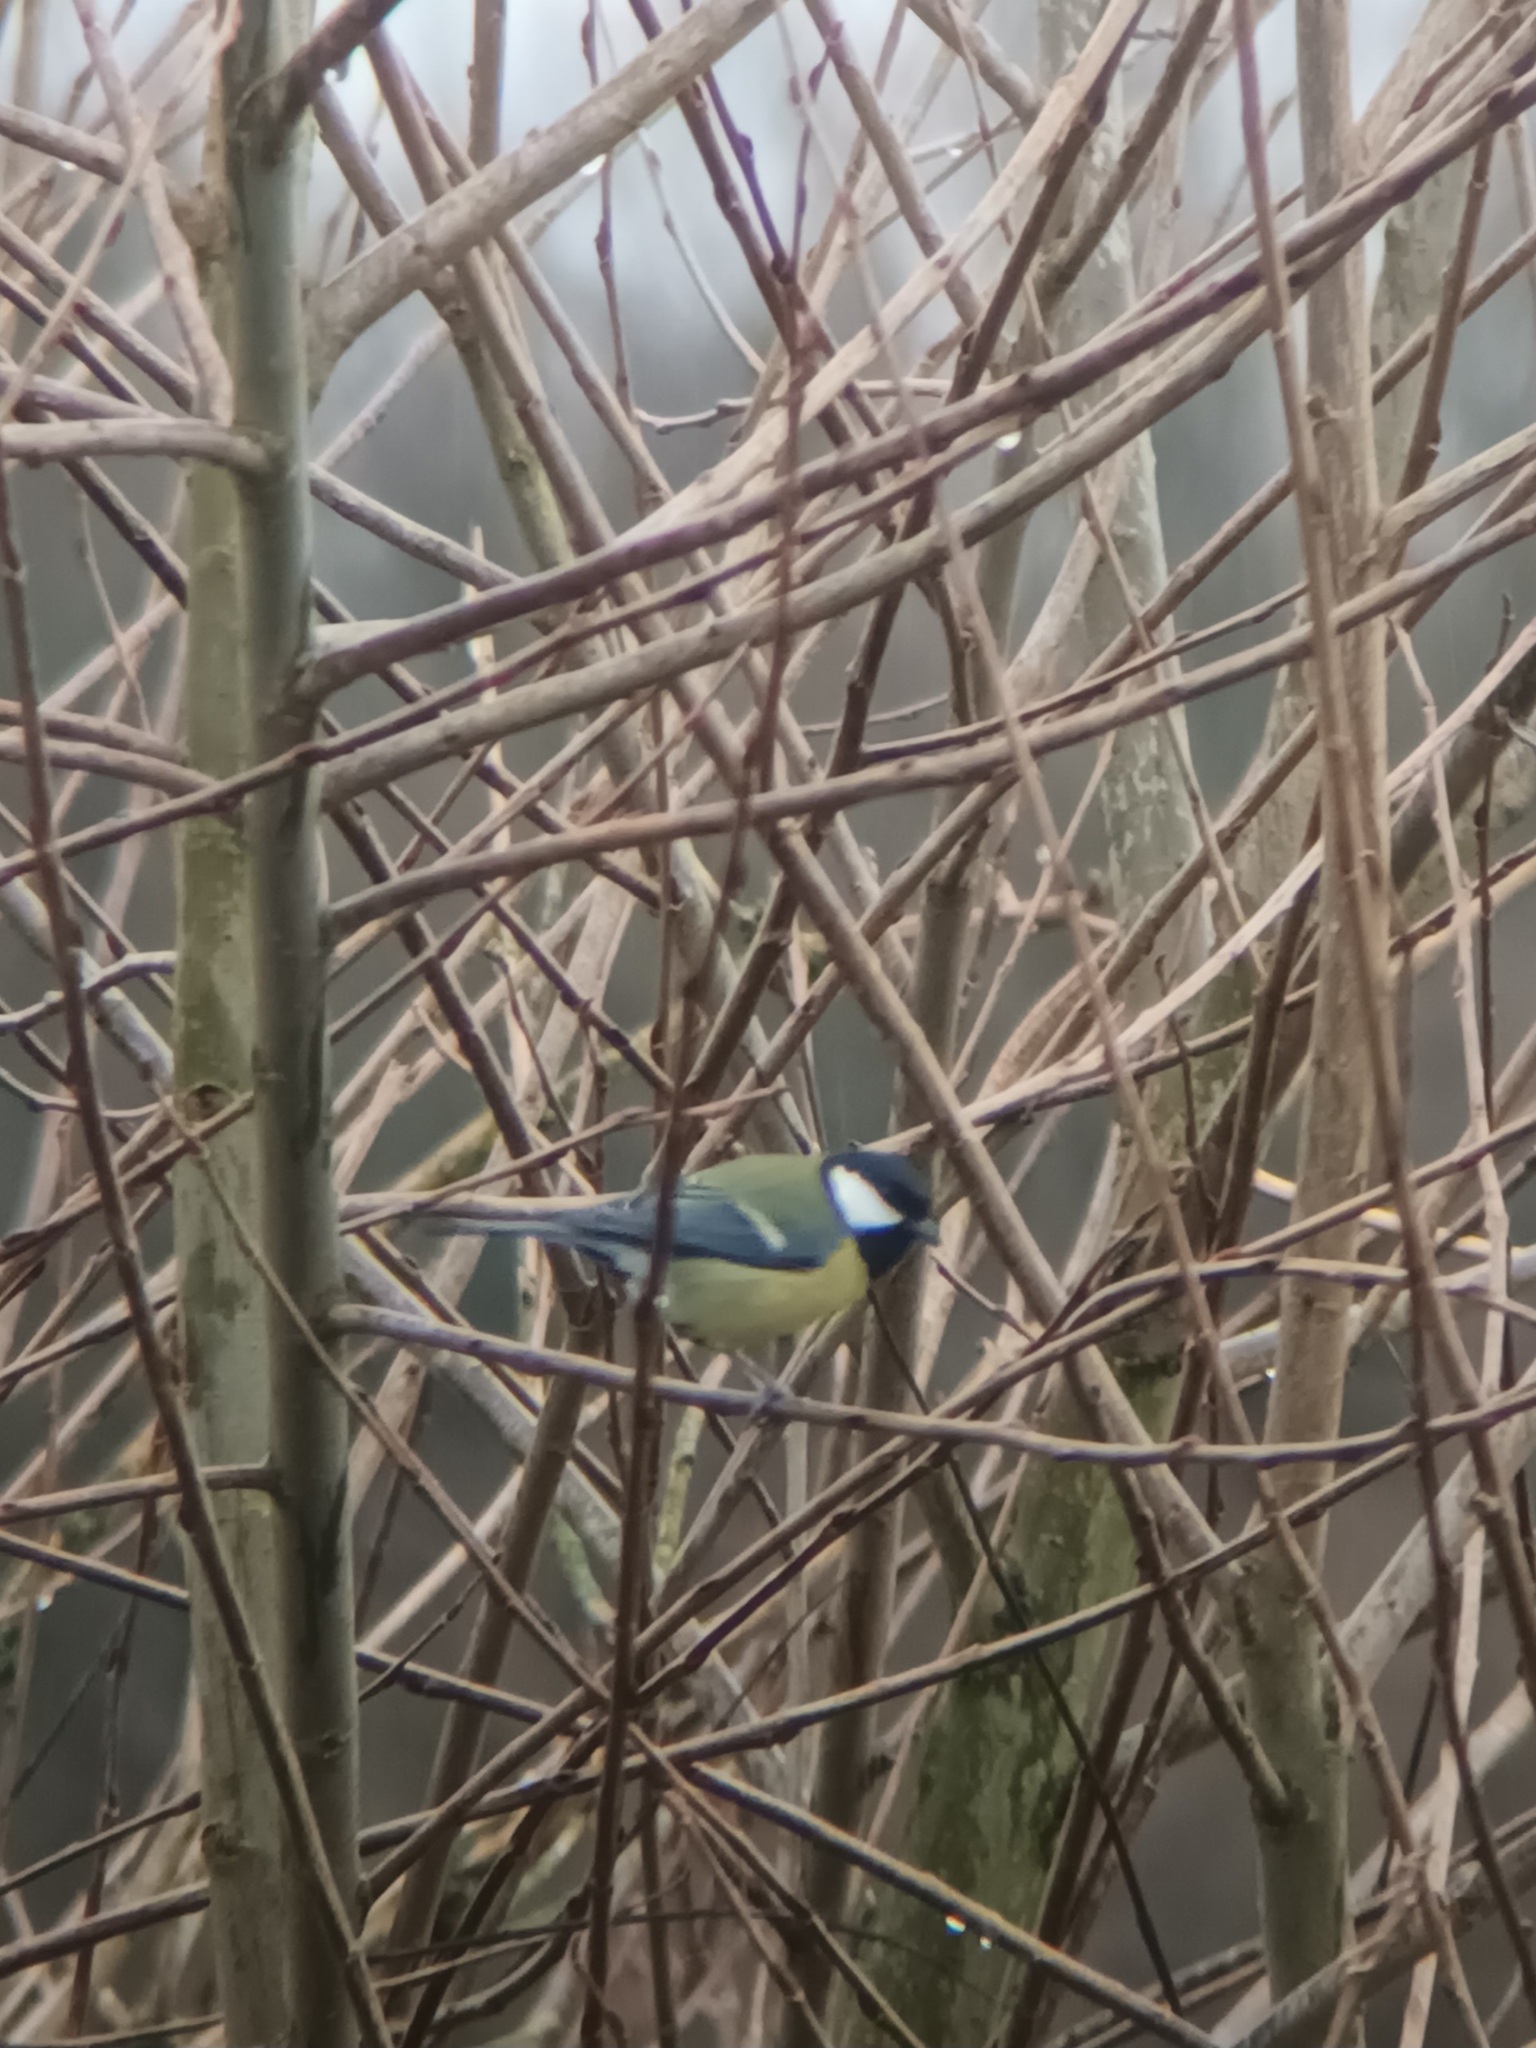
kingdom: Animalia
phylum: Chordata
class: Aves
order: Passeriformes
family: Paridae
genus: Parus
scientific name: Parus major
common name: Great tit
